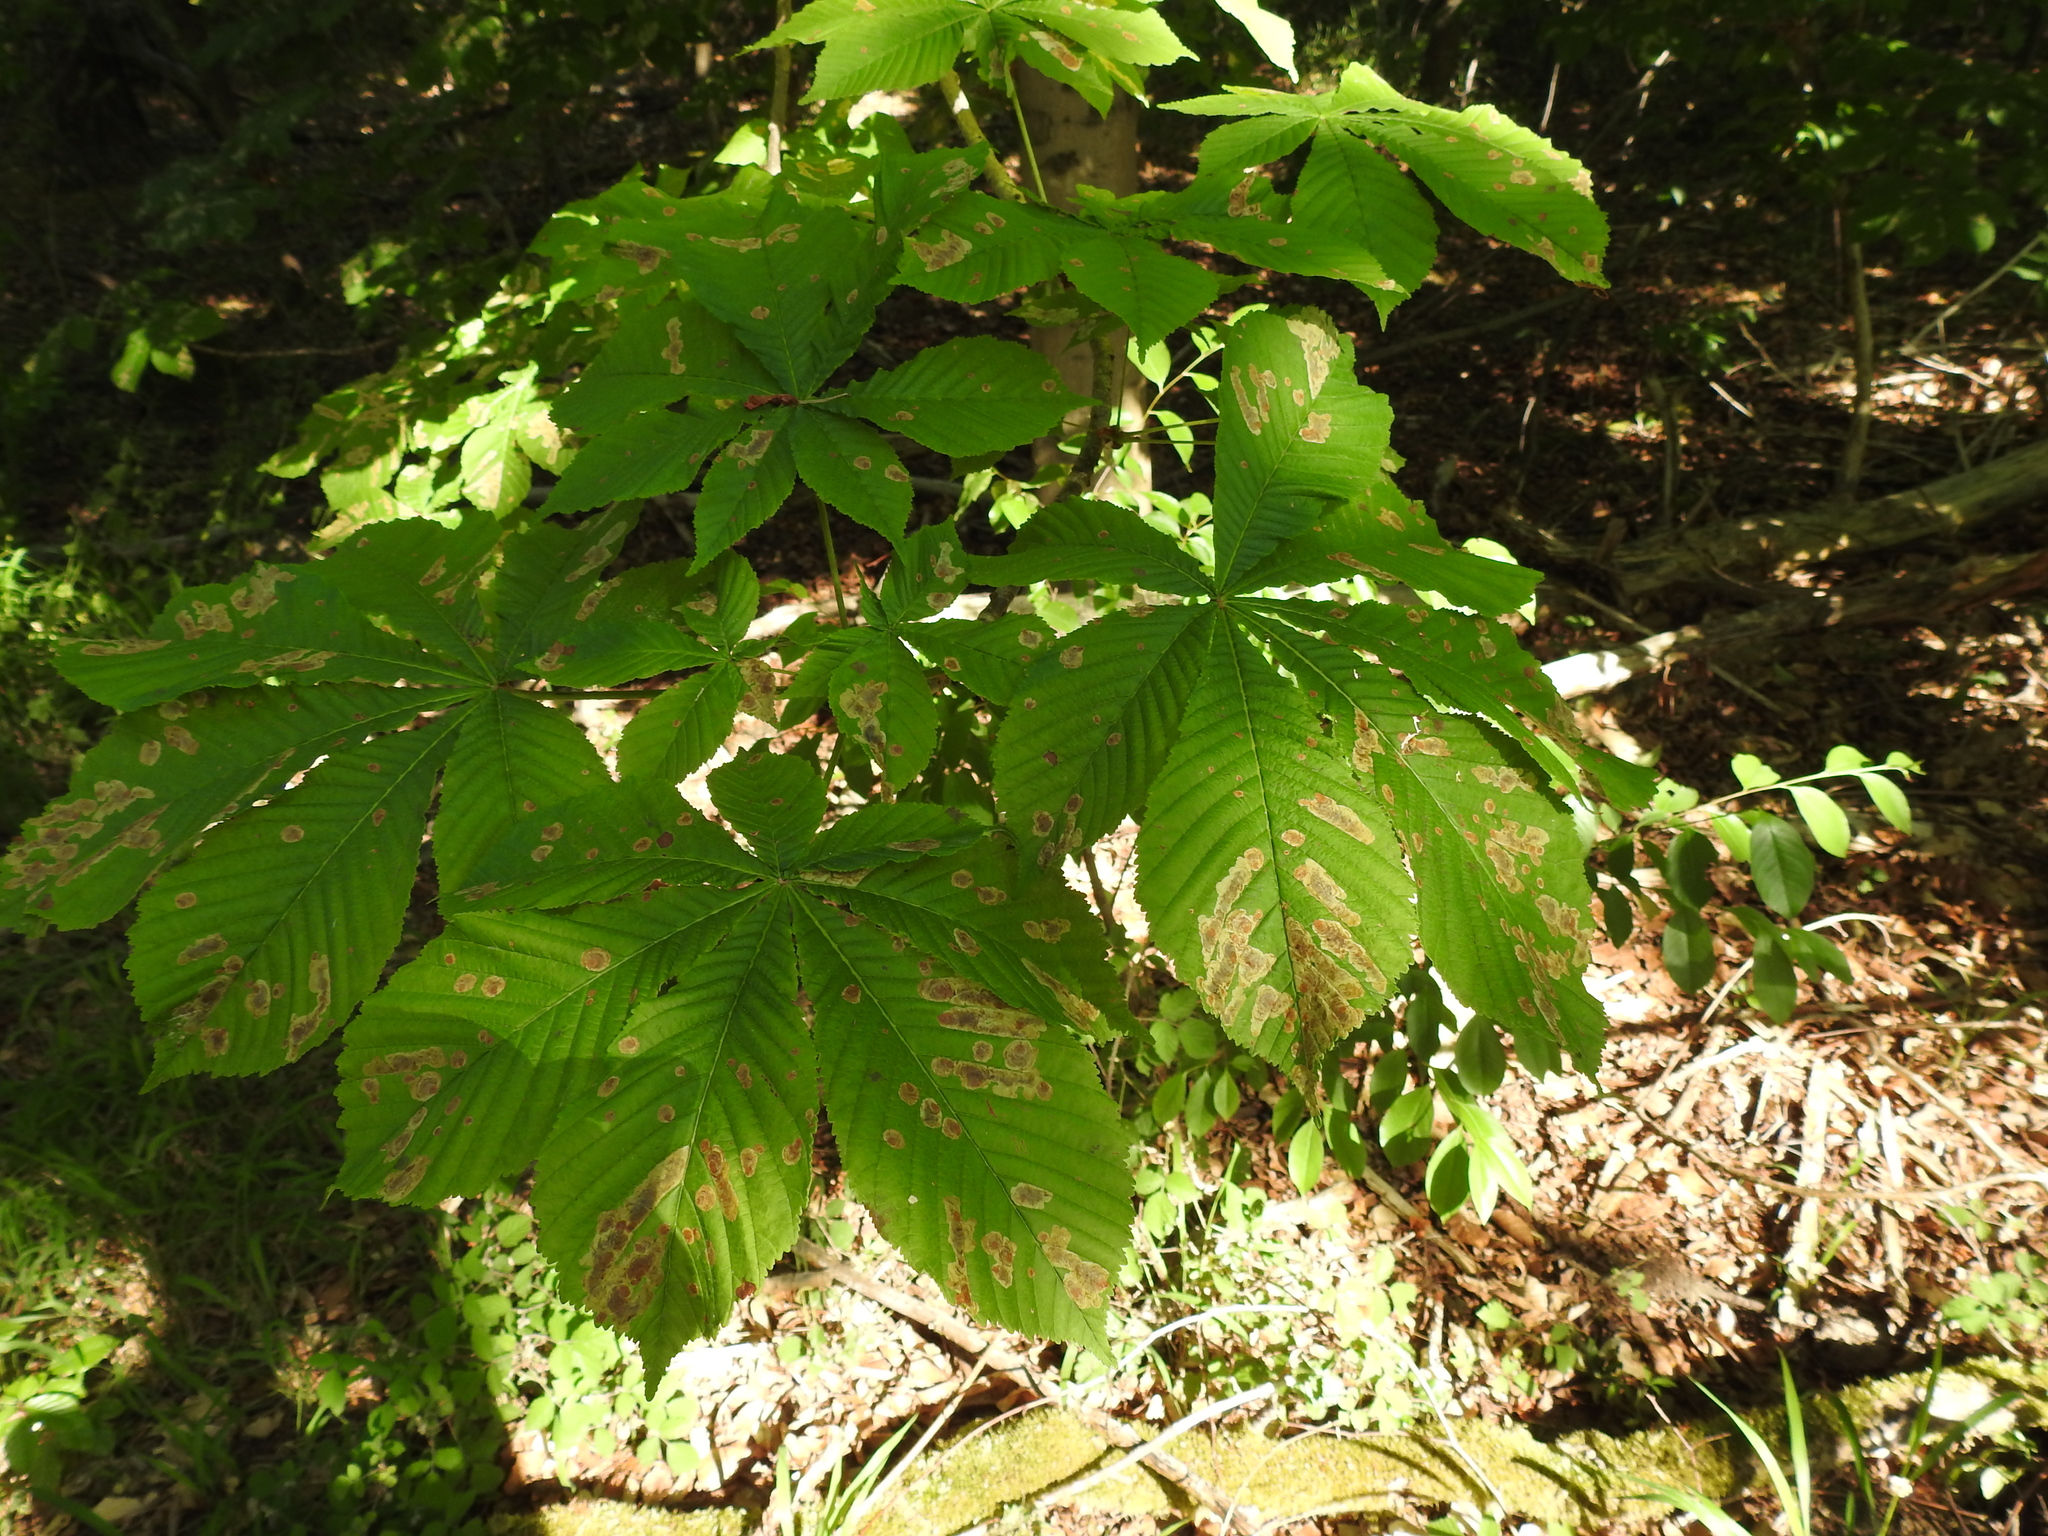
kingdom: Plantae
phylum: Tracheophyta
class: Magnoliopsida
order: Sapindales
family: Sapindaceae
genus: Aesculus
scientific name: Aesculus hippocastanum
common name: Horse-chestnut
